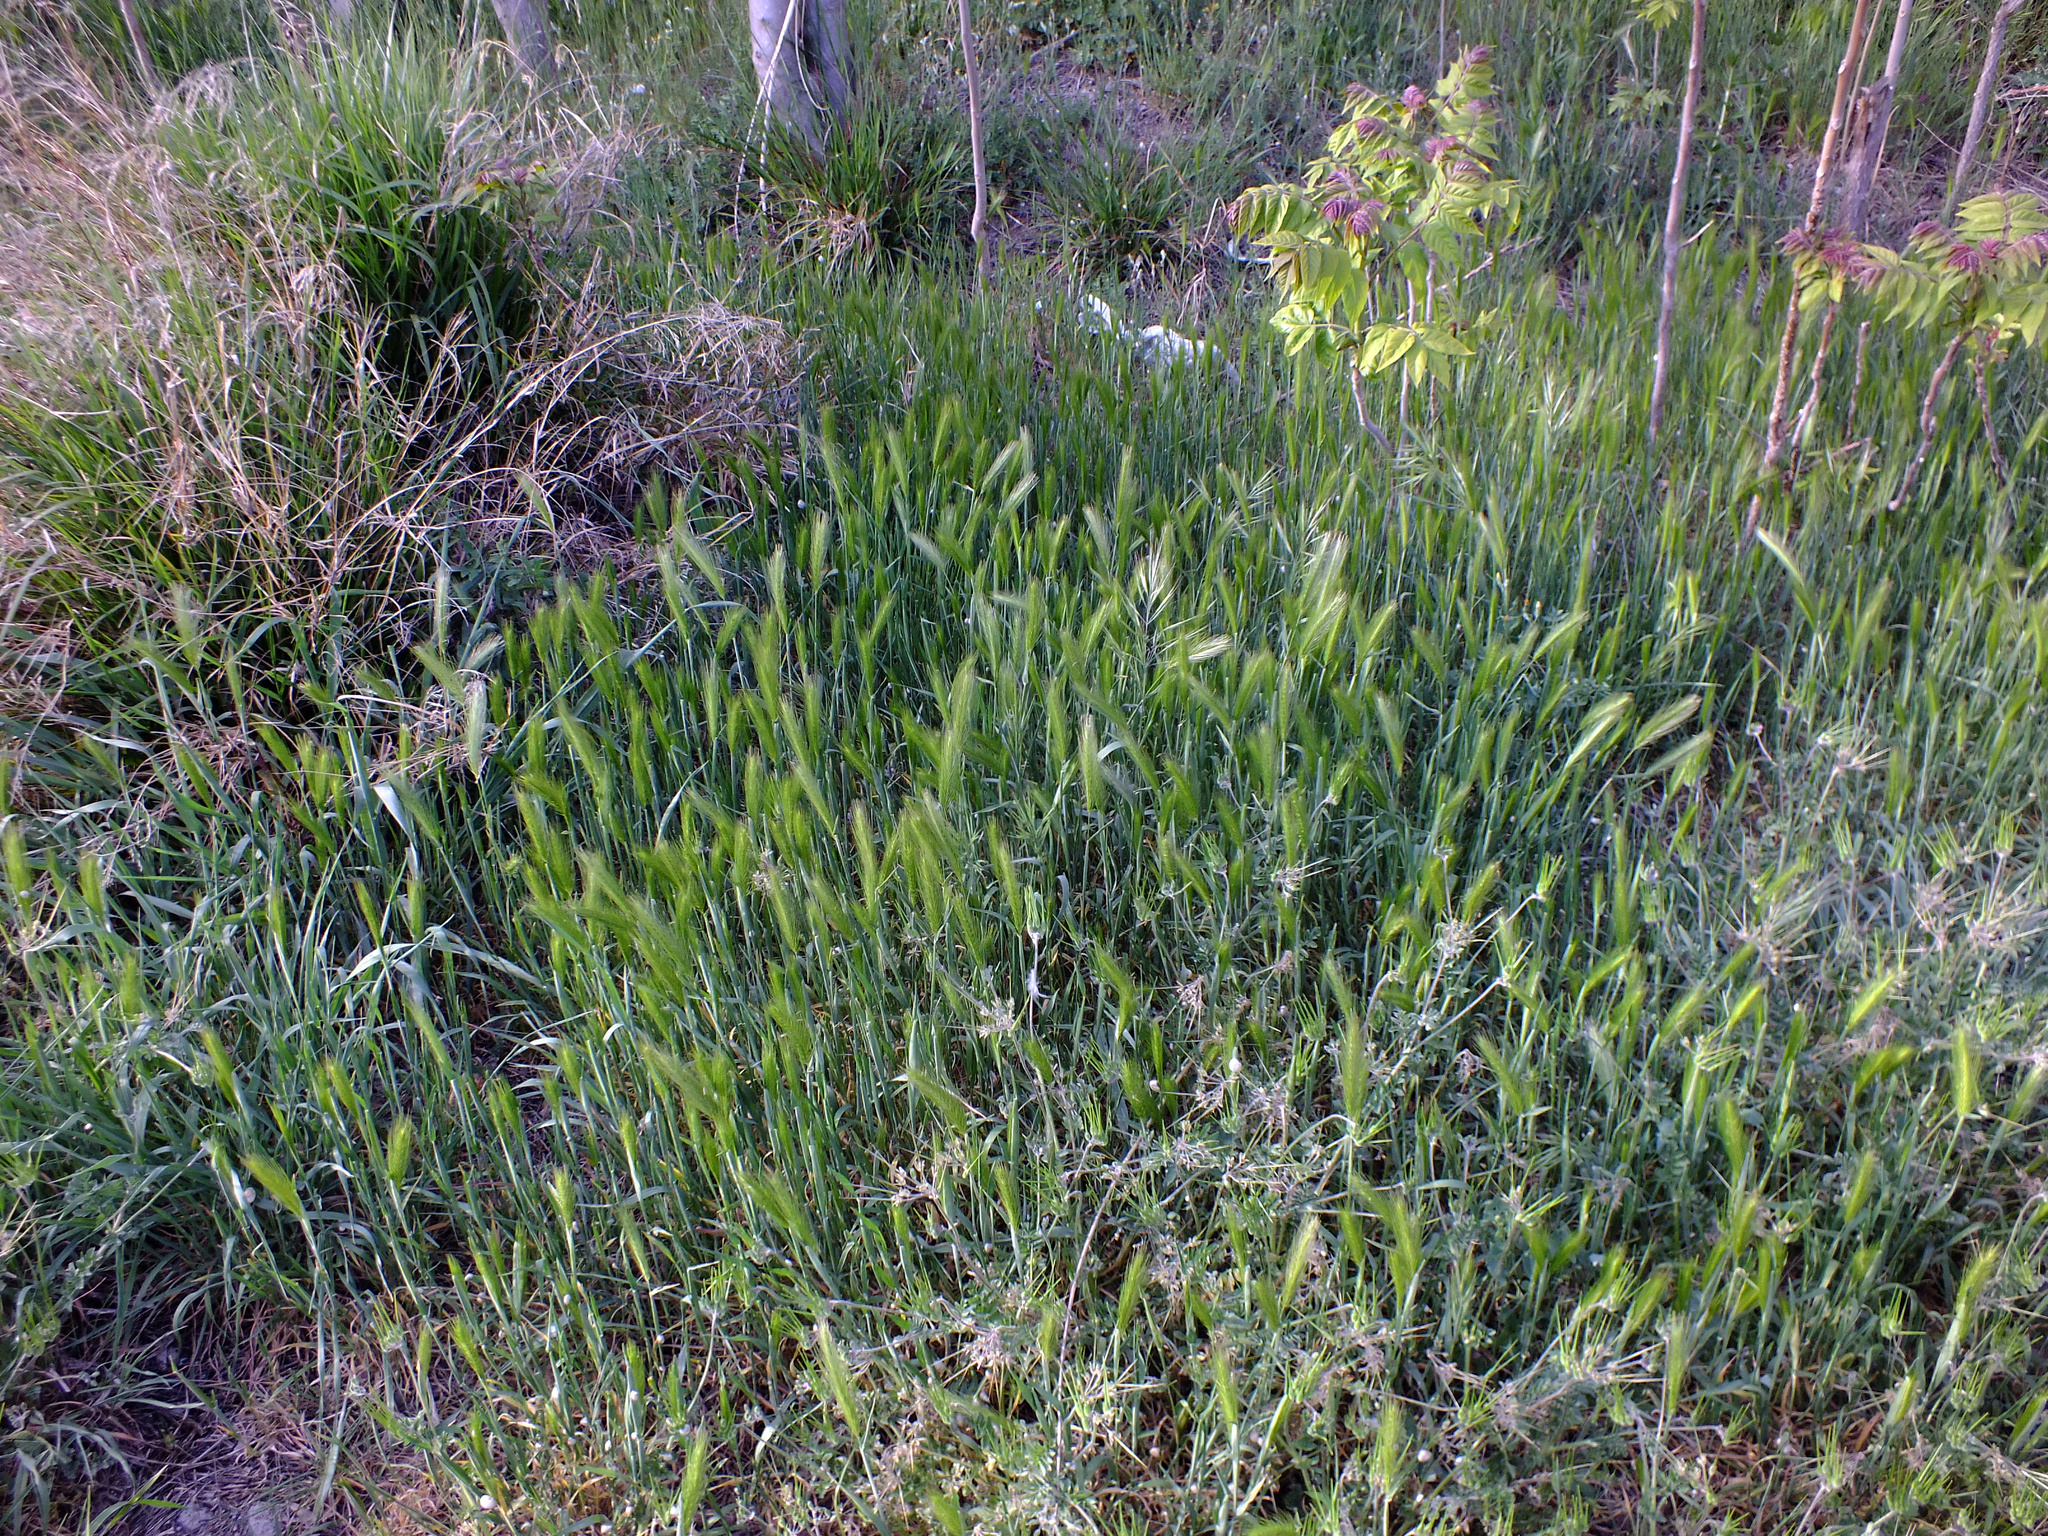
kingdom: Plantae
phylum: Tracheophyta
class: Liliopsida
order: Poales
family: Poaceae
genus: Hordeum
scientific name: Hordeum murinum
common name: Wall barley
